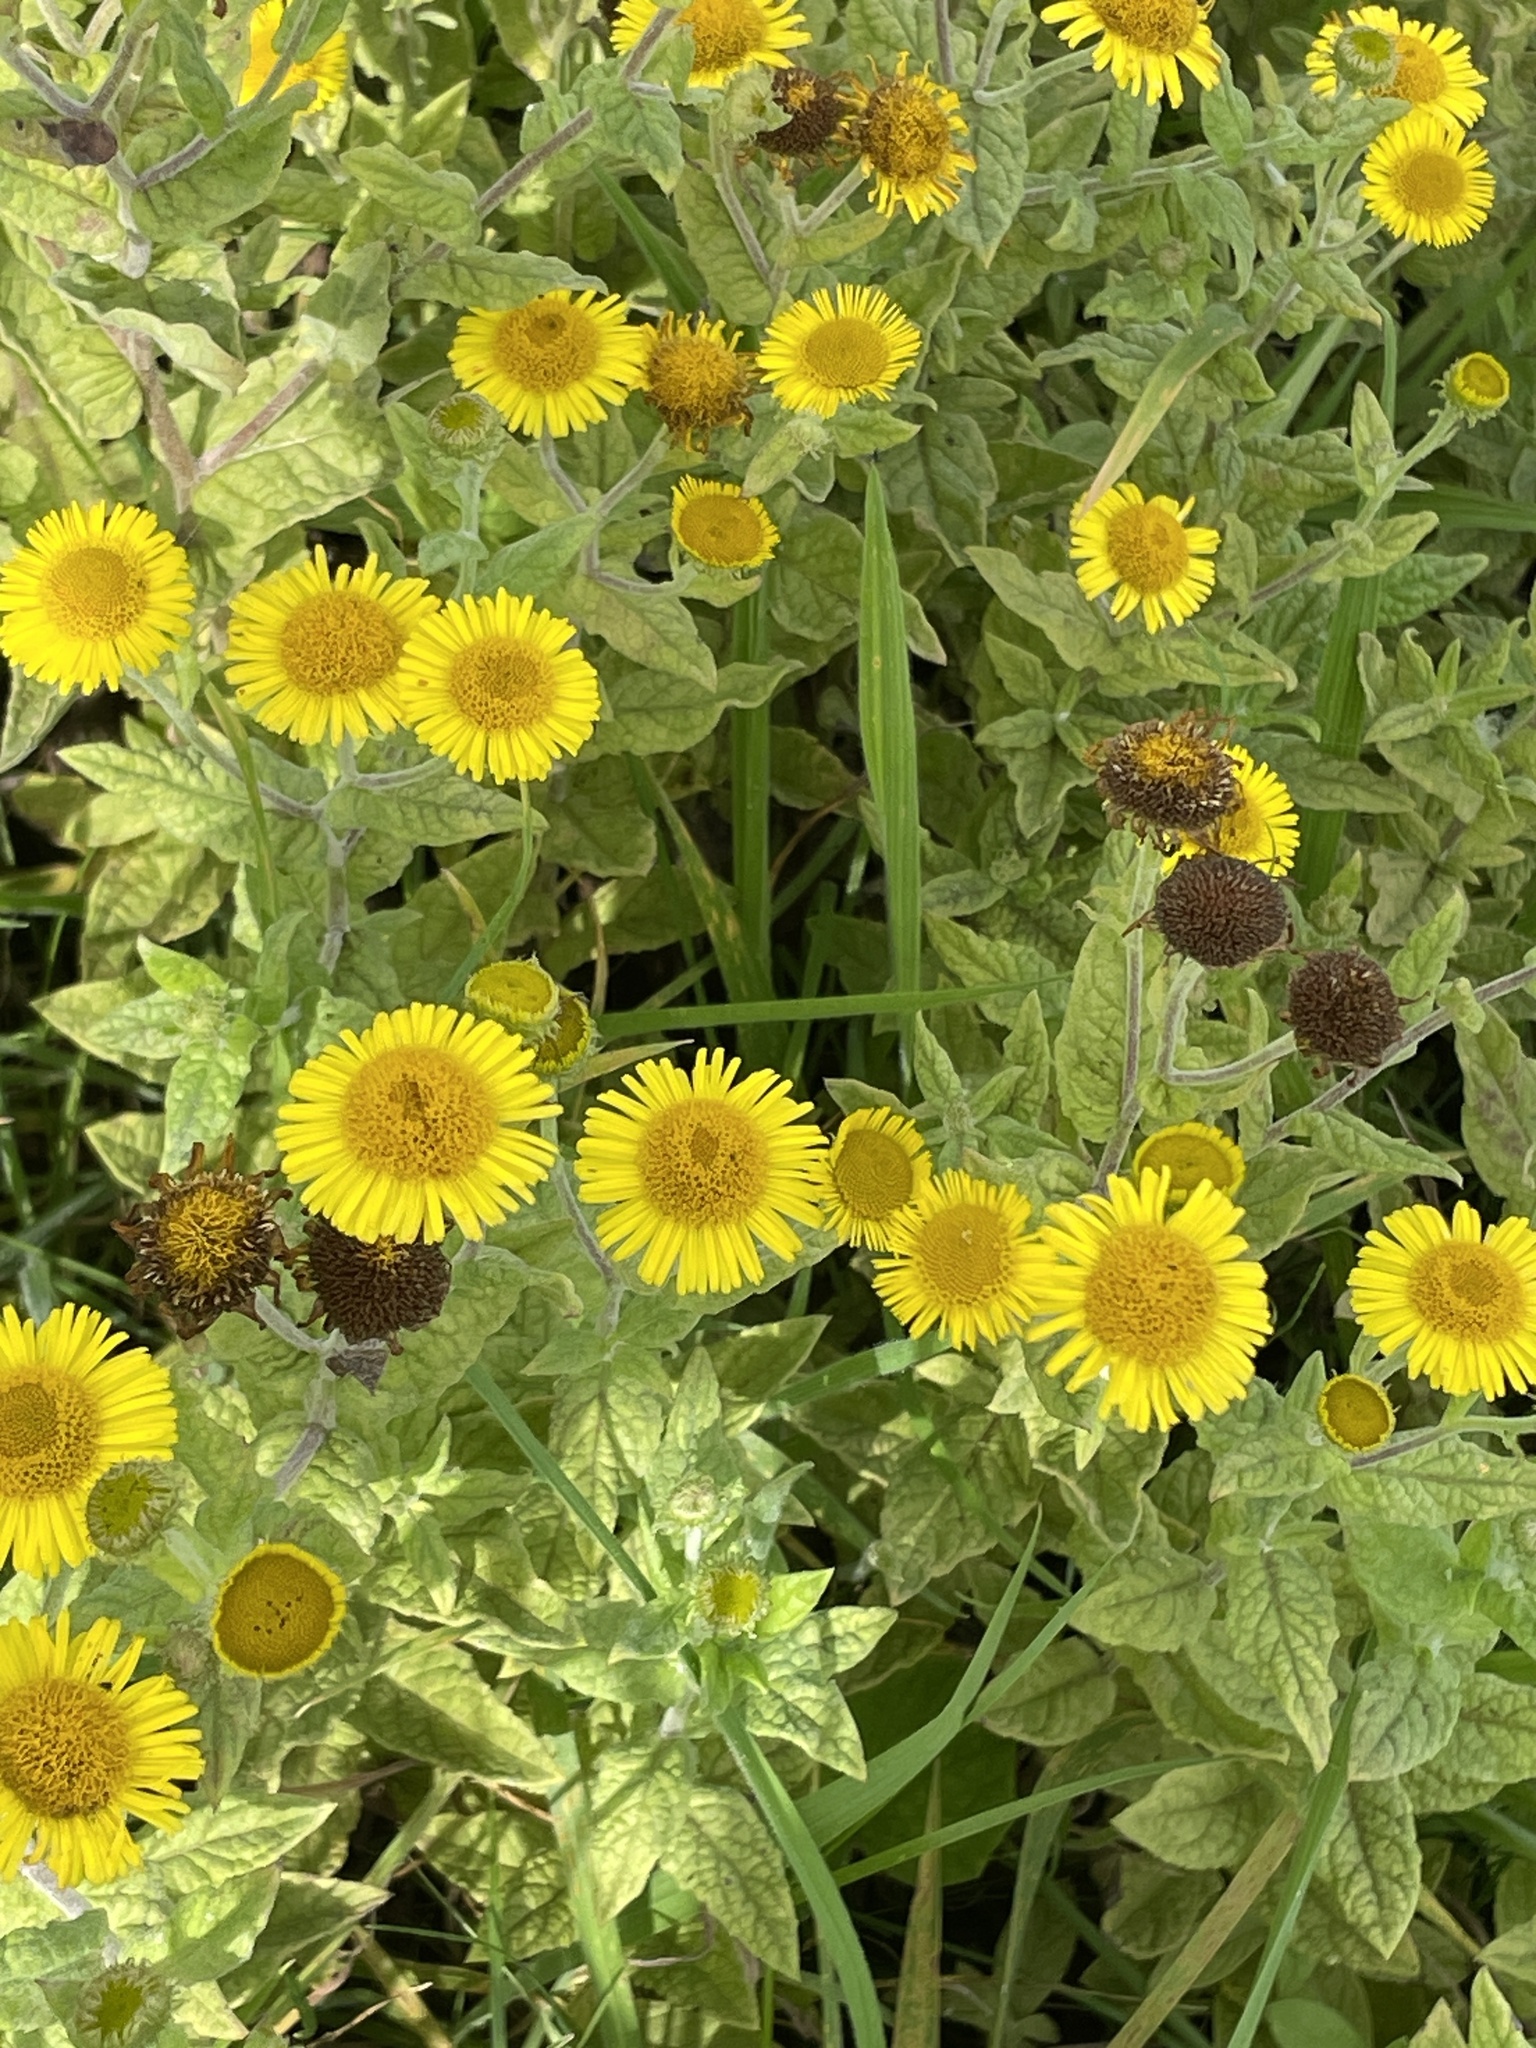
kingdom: Plantae
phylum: Tracheophyta
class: Magnoliopsida
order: Asterales
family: Asteraceae
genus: Pulicaria
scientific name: Pulicaria dysenterica
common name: Common fleabane
